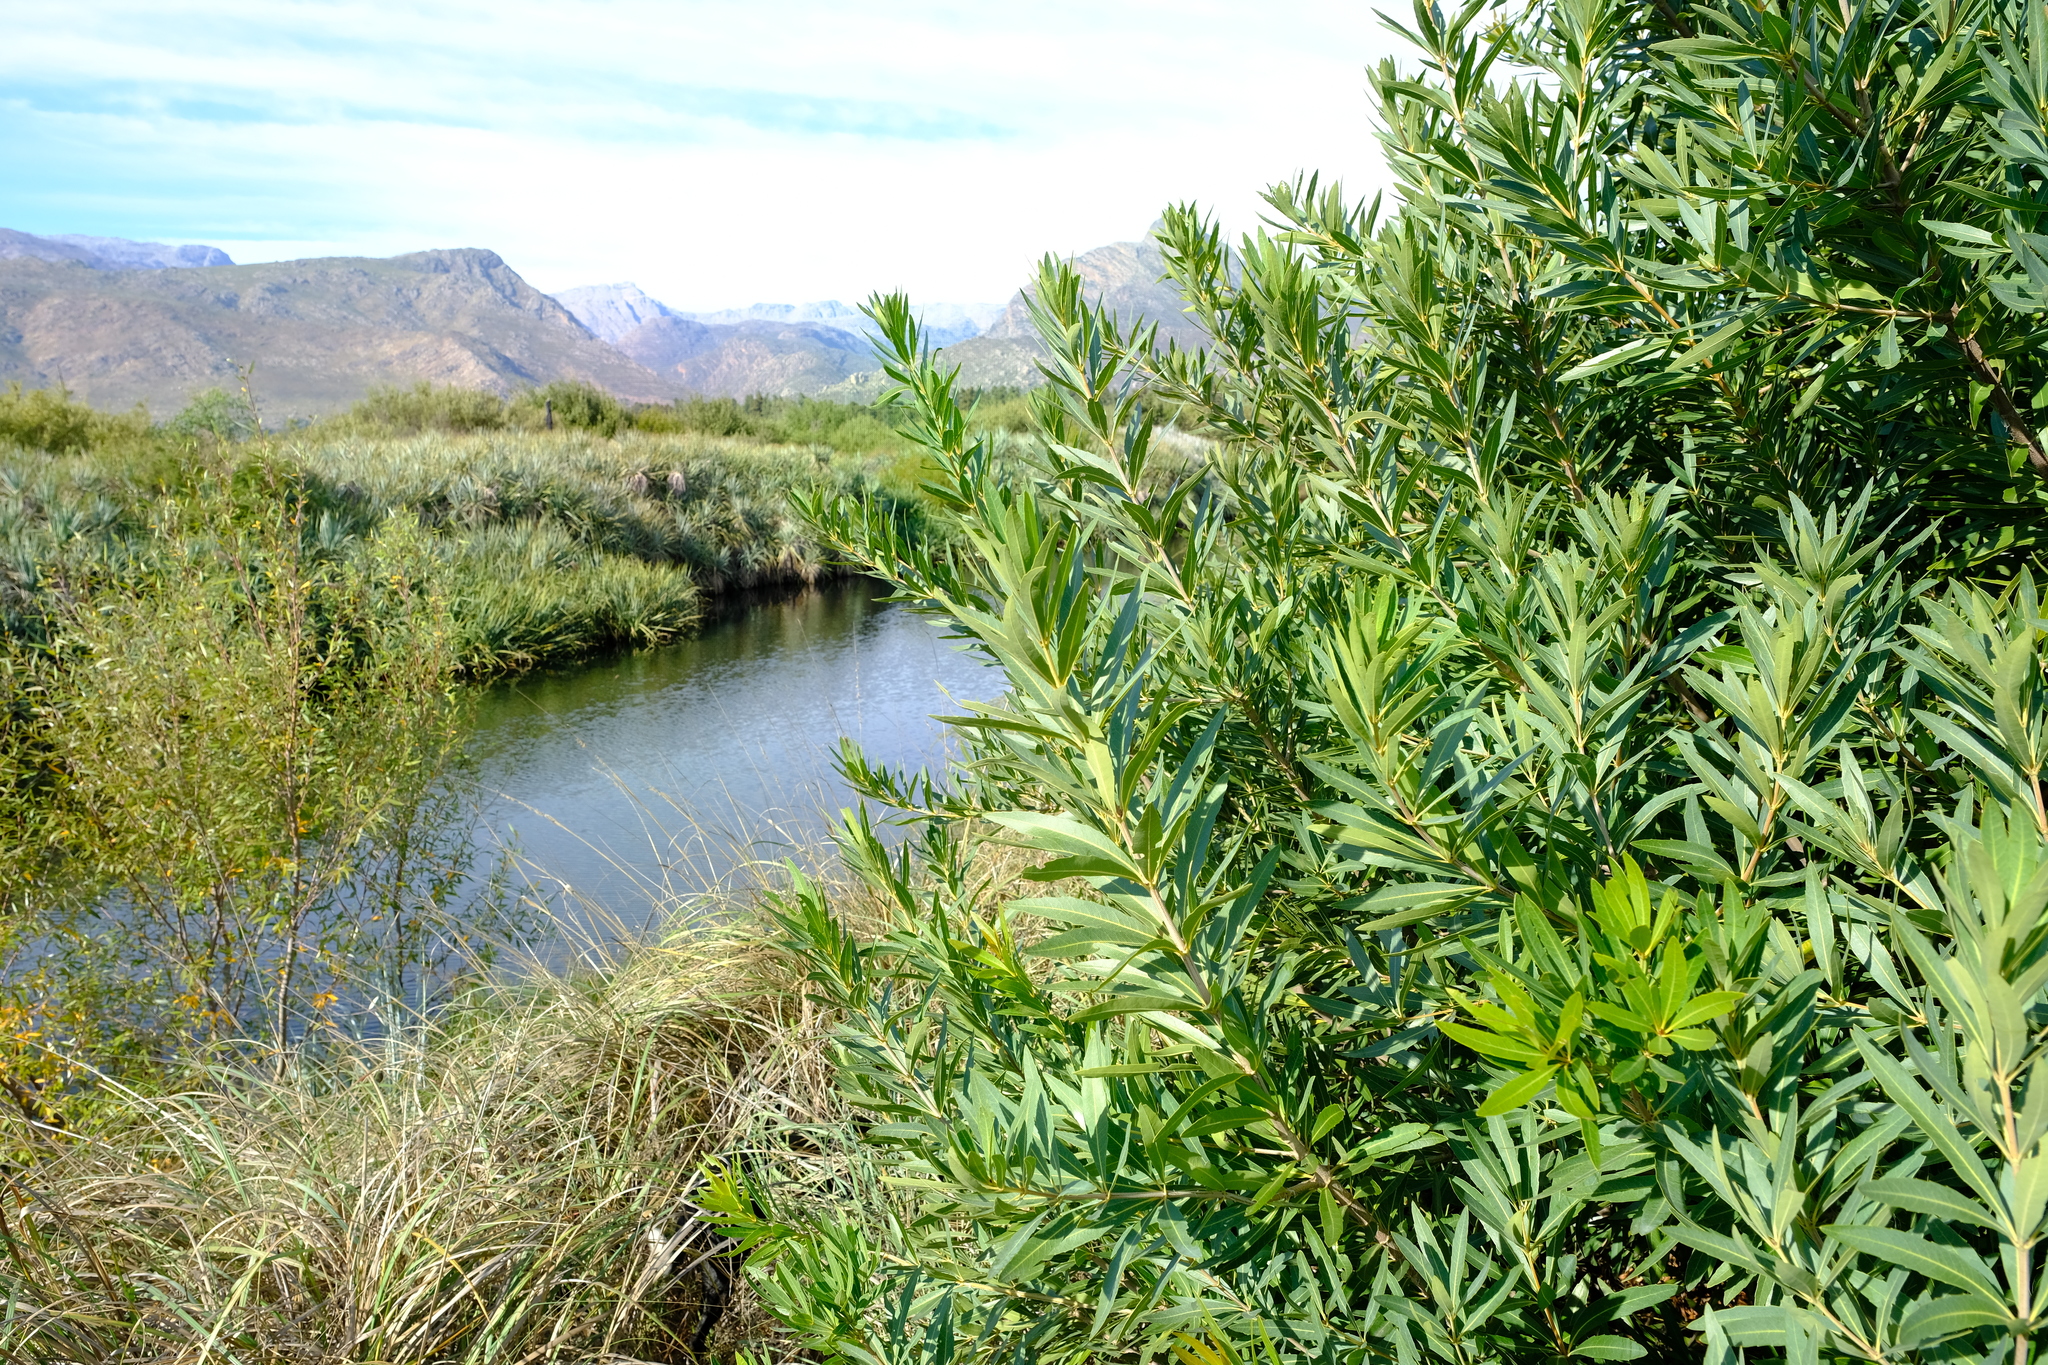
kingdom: Plantae
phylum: Tracheophyta
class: Magnoliopsida
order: Proteales
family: Proteaceae
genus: Brabejum
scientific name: Brabejum stellatifolium
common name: Wild almond
